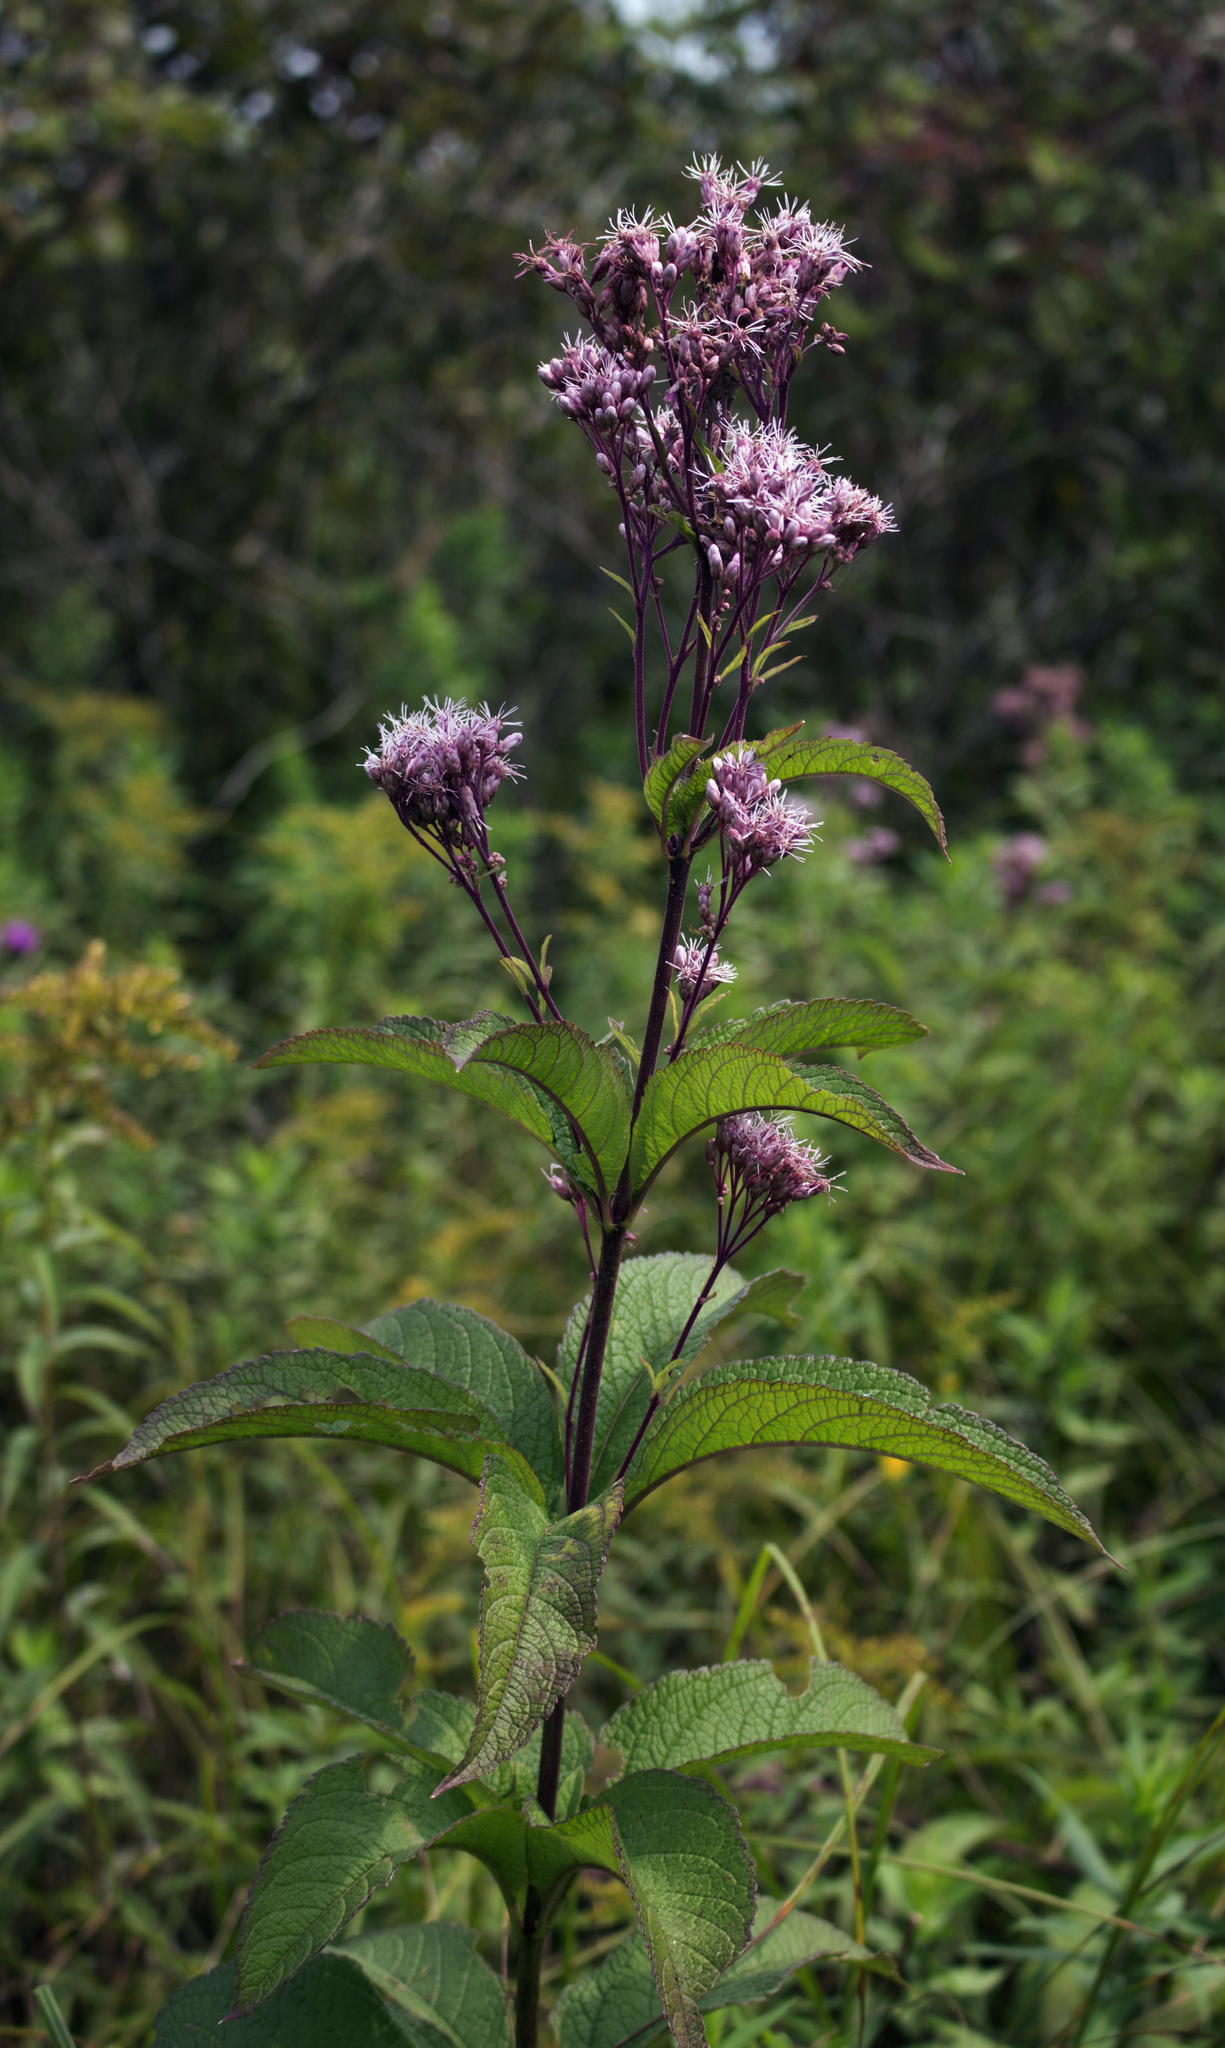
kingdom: Plantae
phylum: Tracheophyta
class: Magnoliopsida
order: Asterales
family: Asteraceae
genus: Eutrochium
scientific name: Eutrochium maculatum
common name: Spotted joe pye weed
